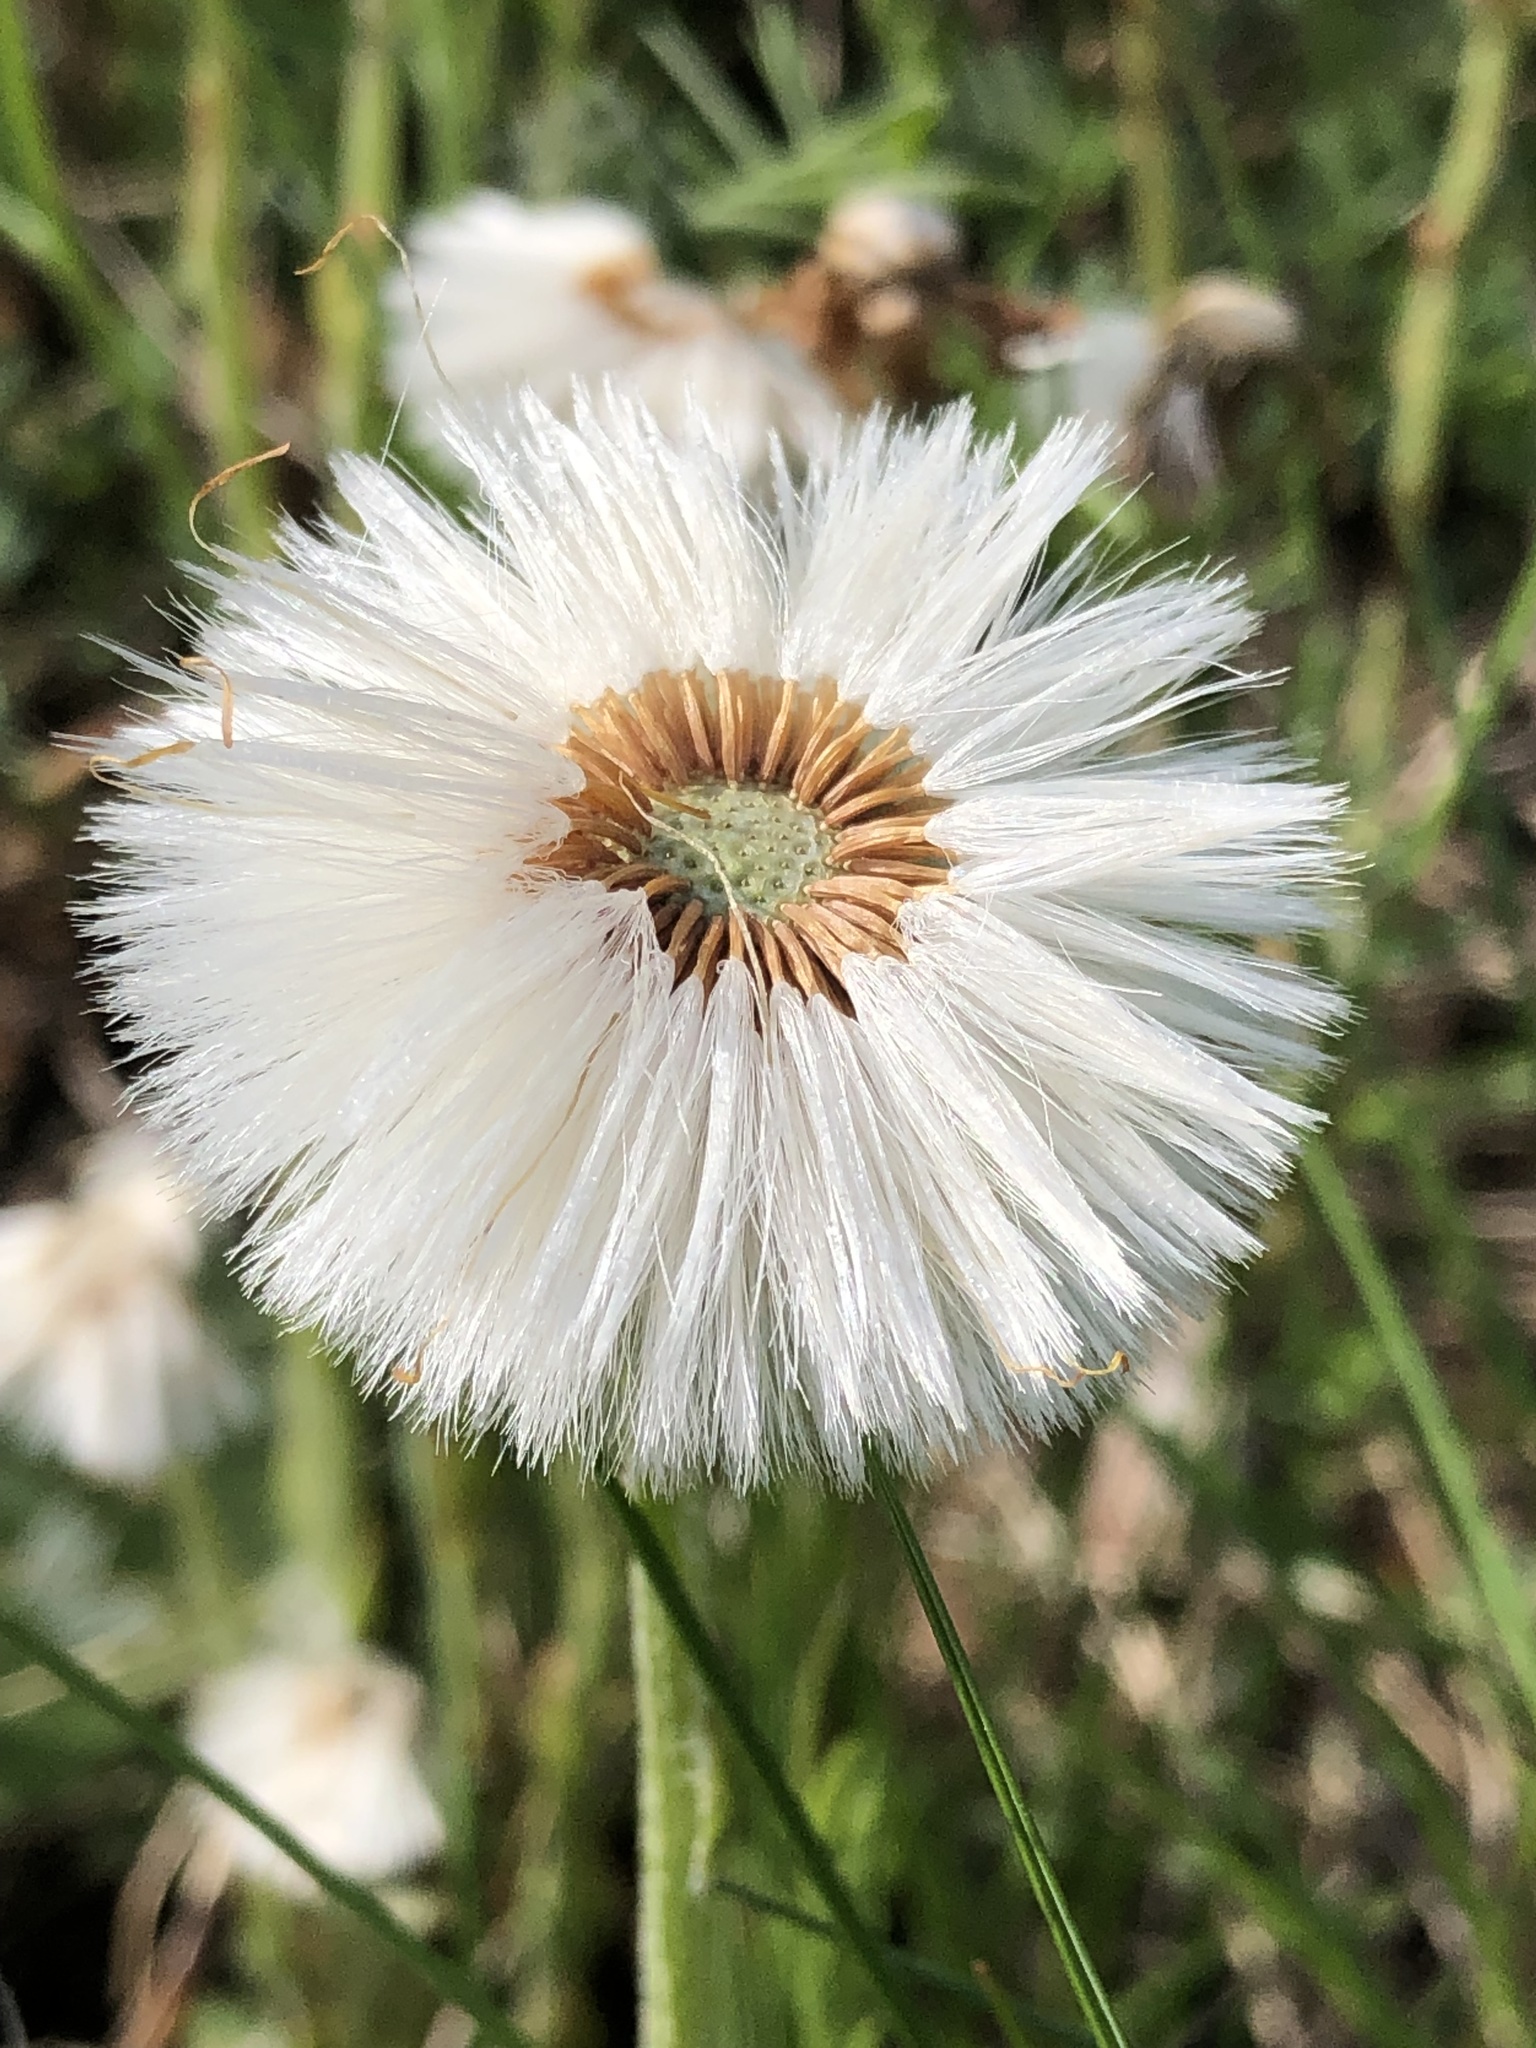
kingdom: Plantae
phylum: Tracheophyta
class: Magnoliopsida
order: Asterales
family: Asteraceae
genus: Tussilago
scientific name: Tussilago farfara
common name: Coltsfoot
